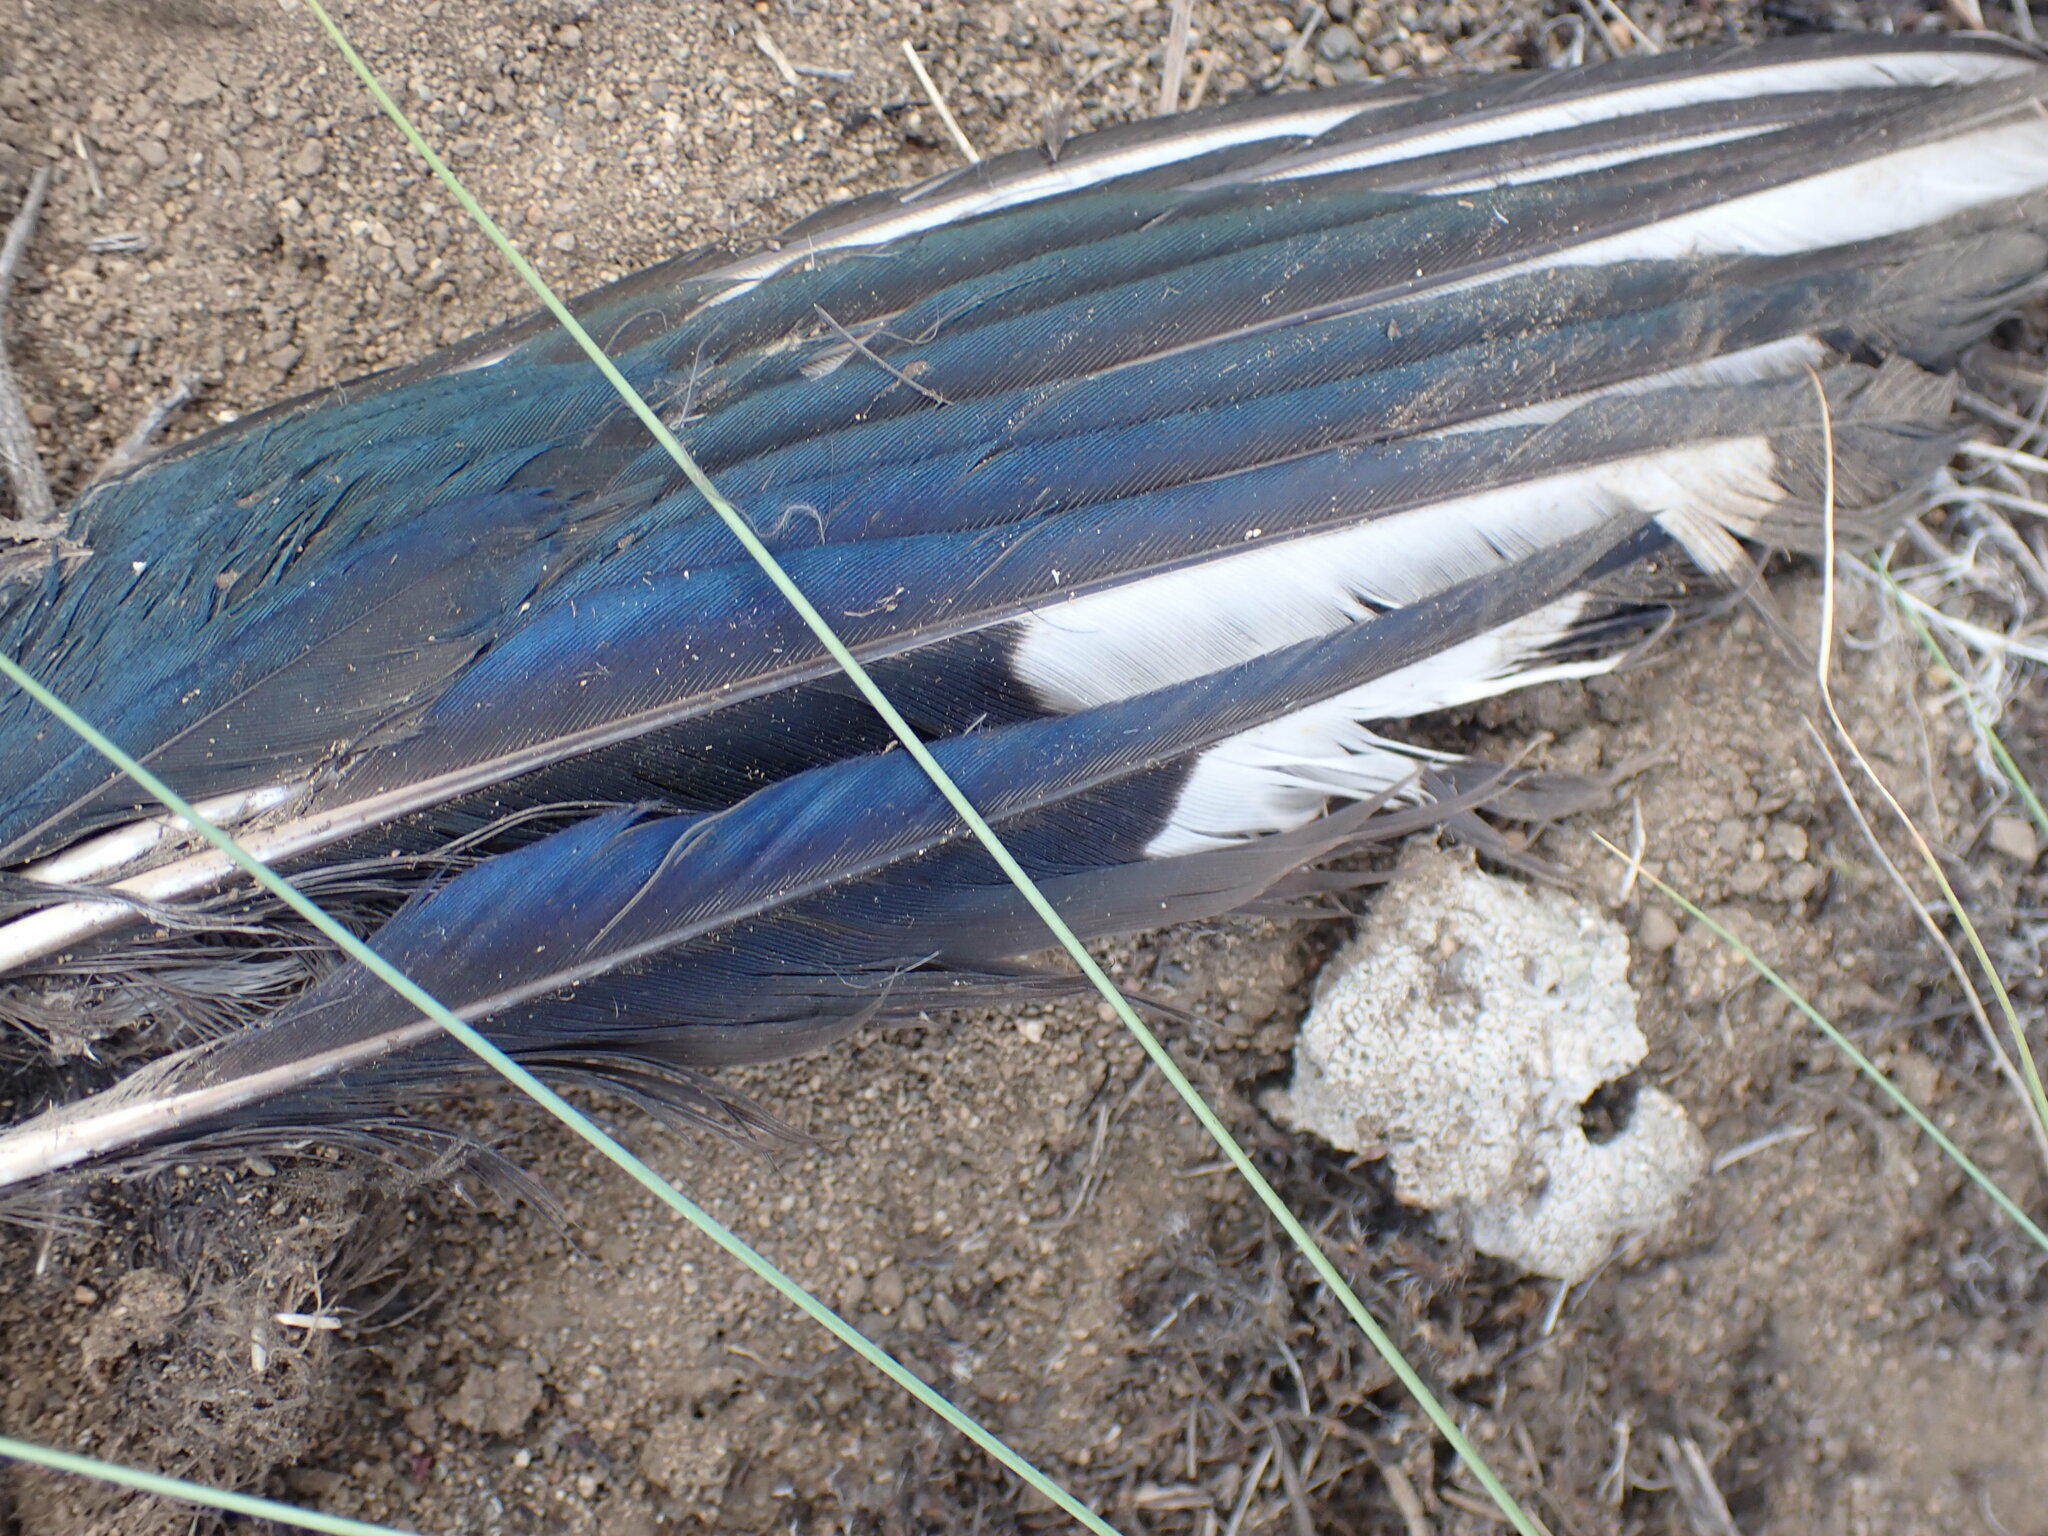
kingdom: Animalia
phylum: Chordata
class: Aves
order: Passeriformes
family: Corvidae
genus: Pica
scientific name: Pica hudsonia
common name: Black-billed magpie
